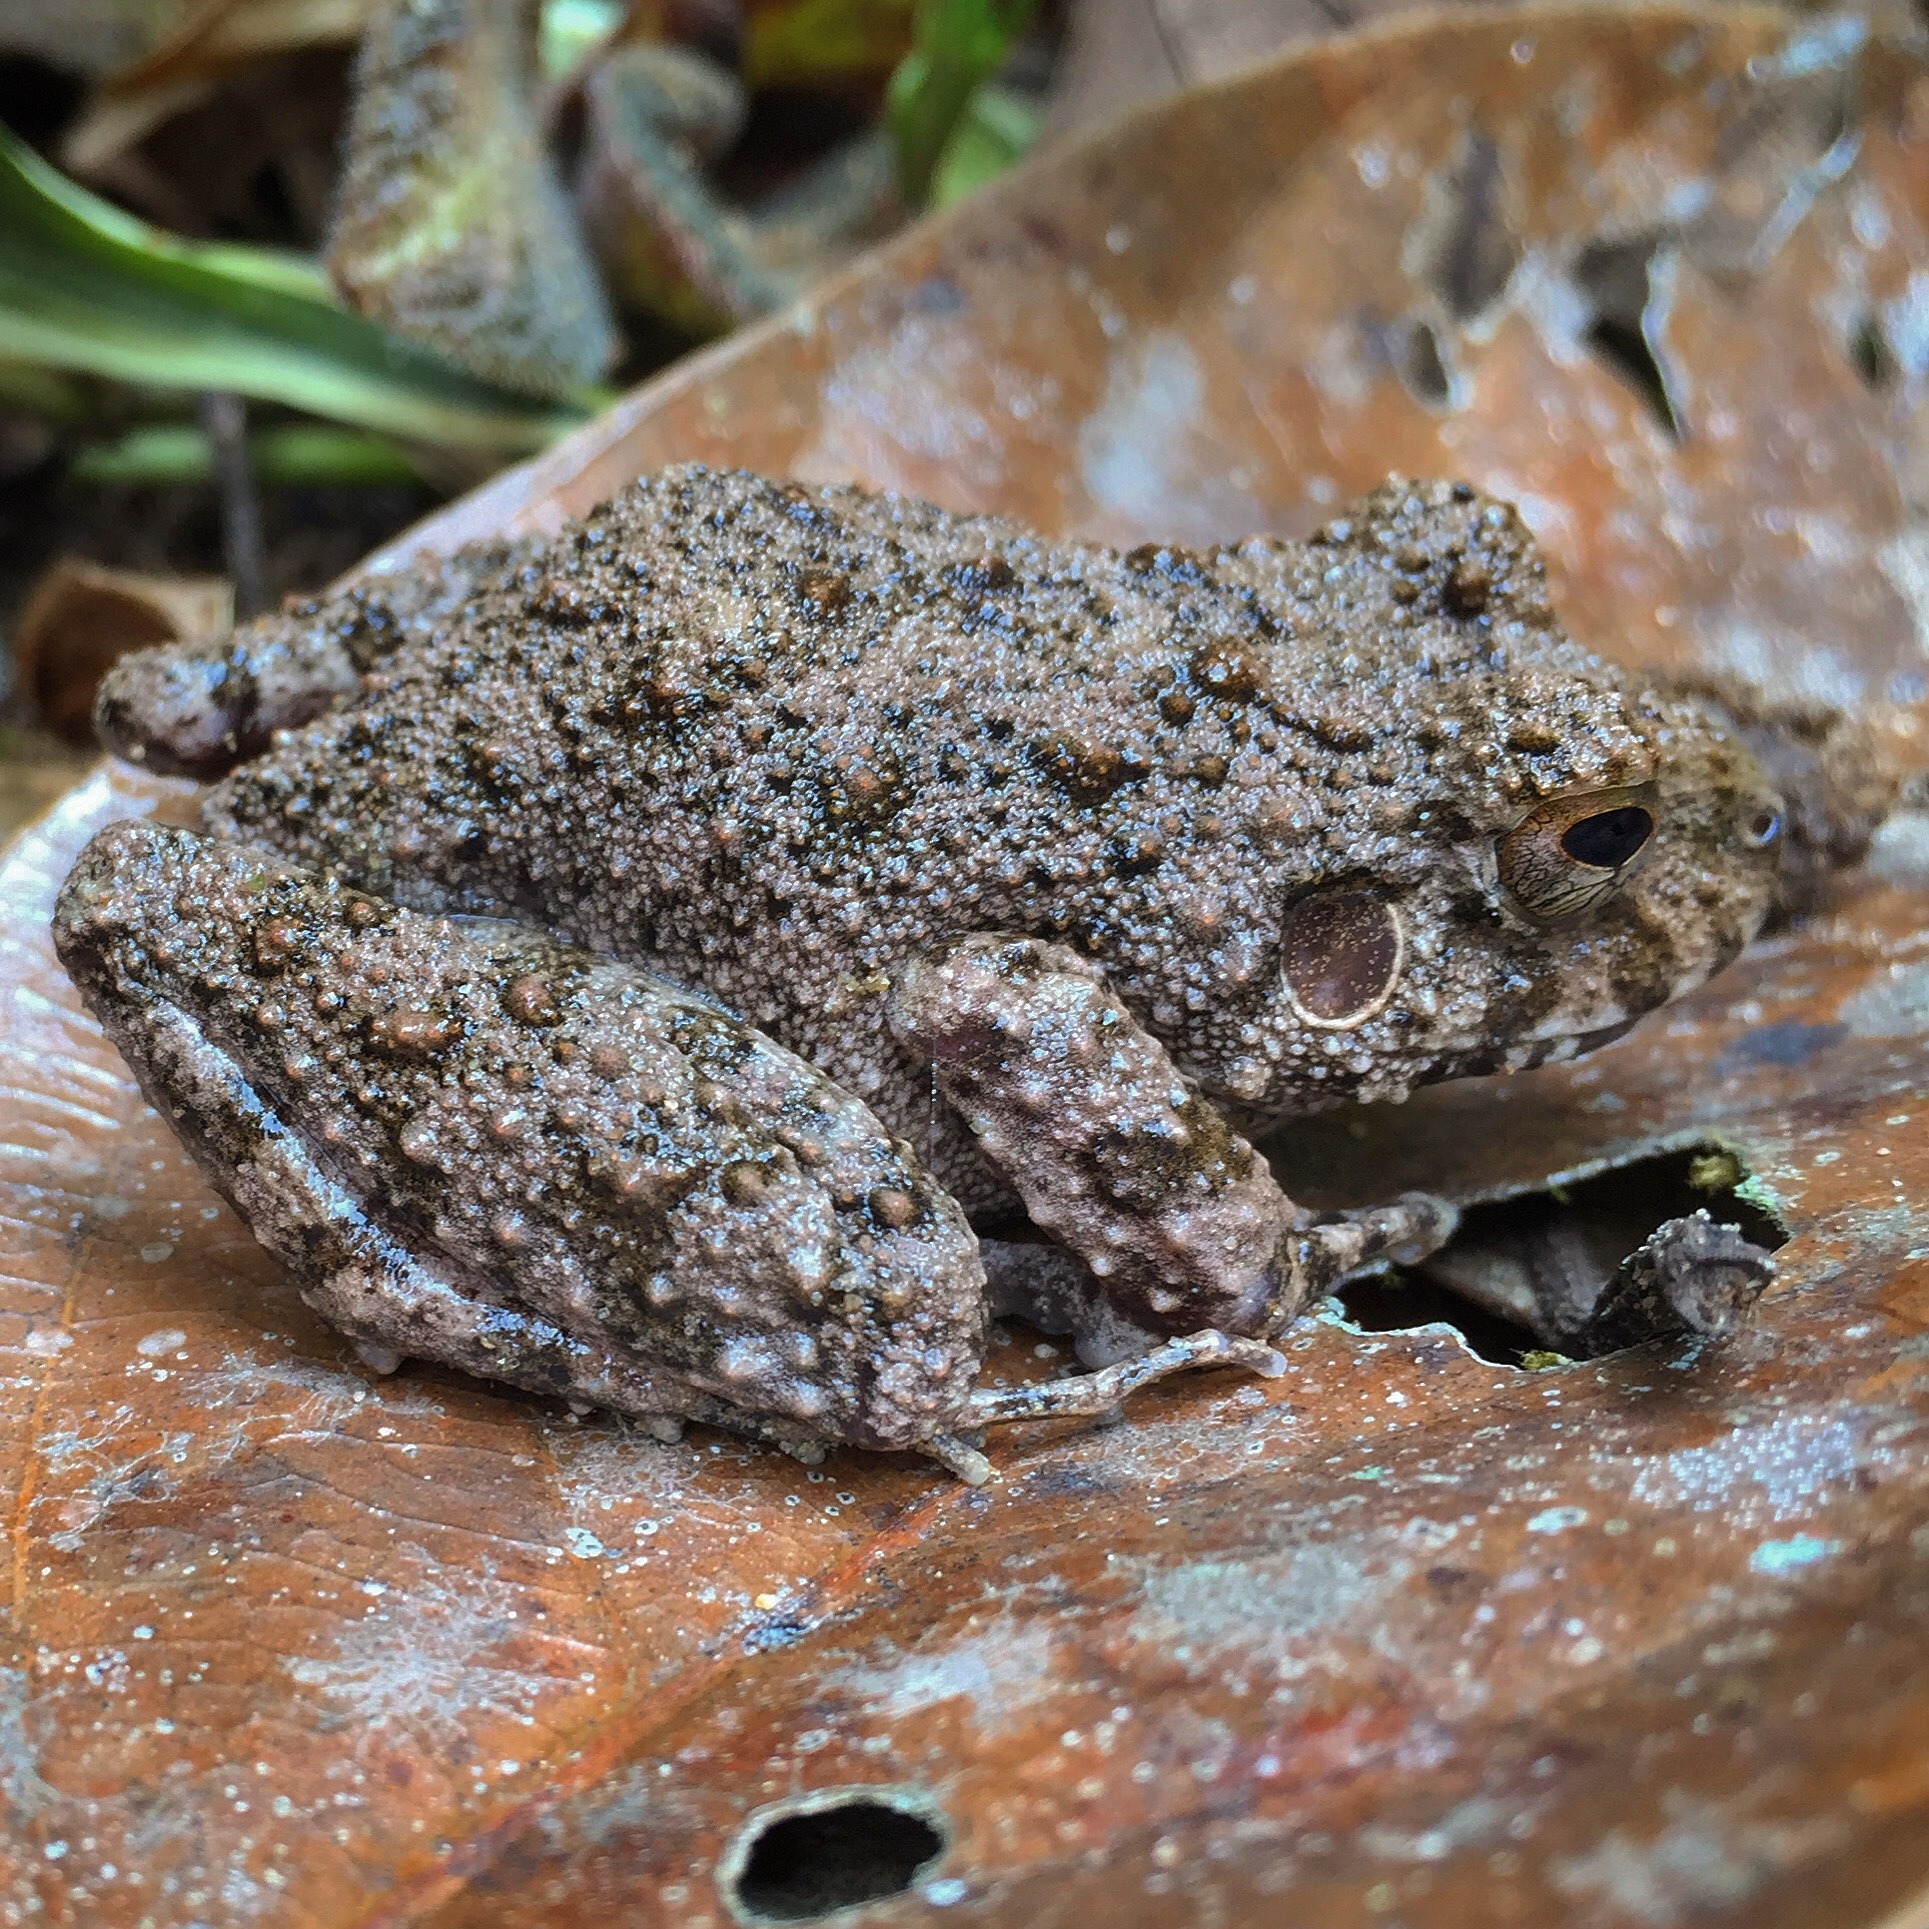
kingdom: Animalia
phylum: Chordata
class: Amphibia
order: Anura
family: Craugastoridae
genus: Oreobates
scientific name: Oreobates quixensis
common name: Common big-headed frog
